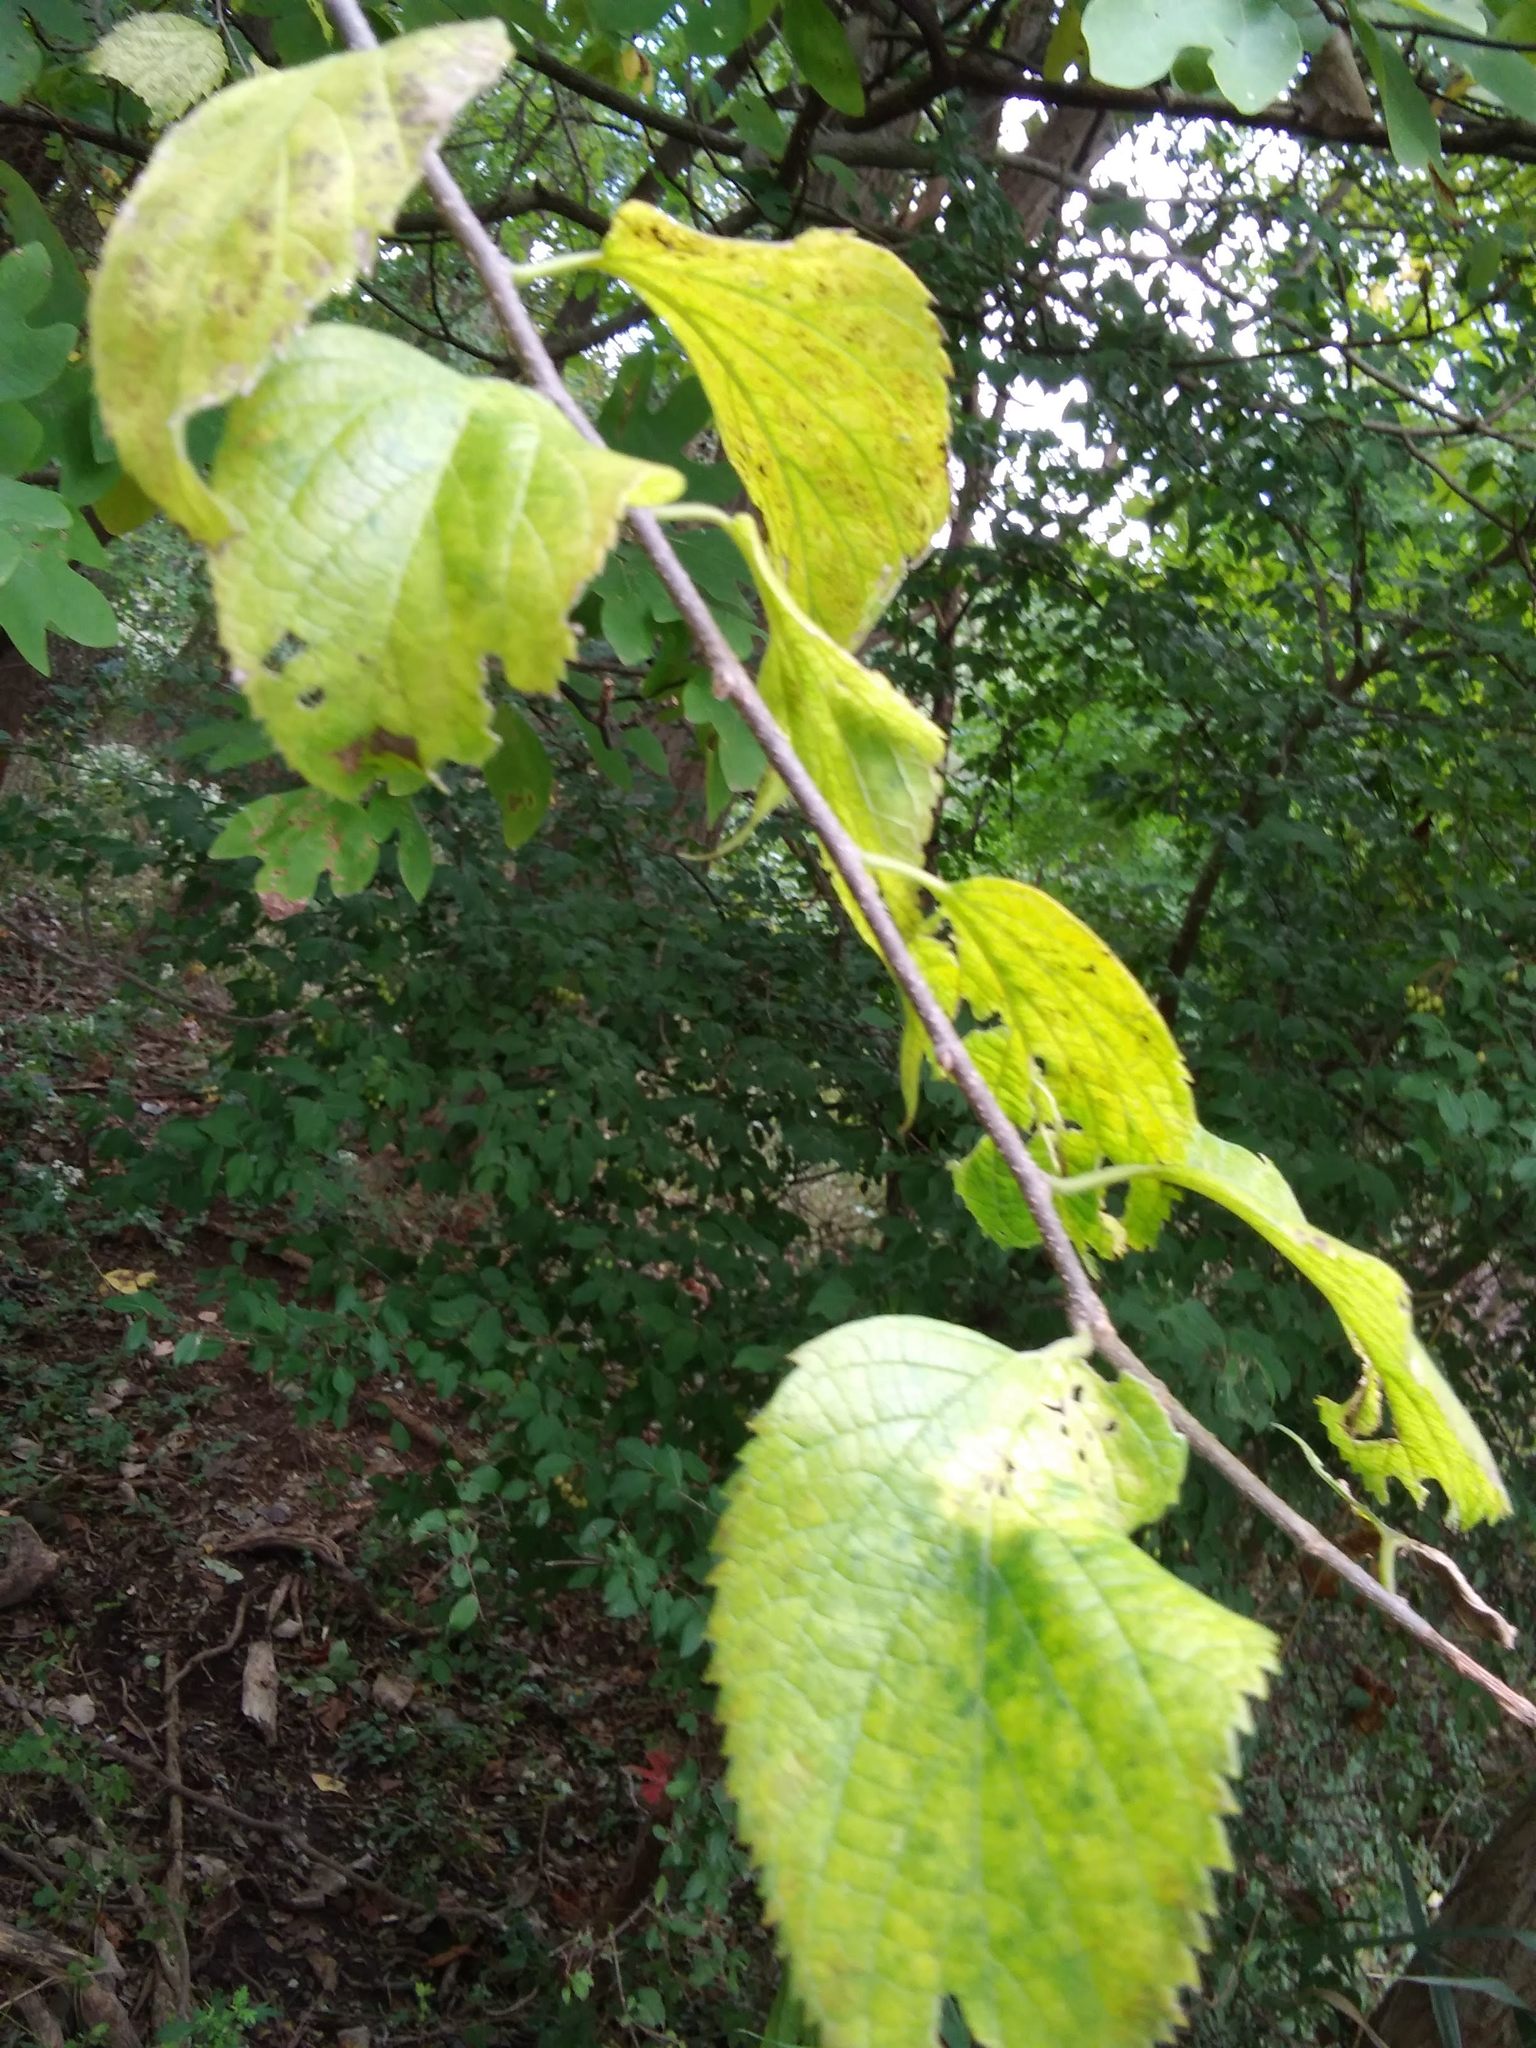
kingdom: Plantae
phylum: Tracheophyta
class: Magnoliopsida
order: Rosales
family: Cannabaceae
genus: Celtis
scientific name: Celtis occidentalis
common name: Common hackberry
